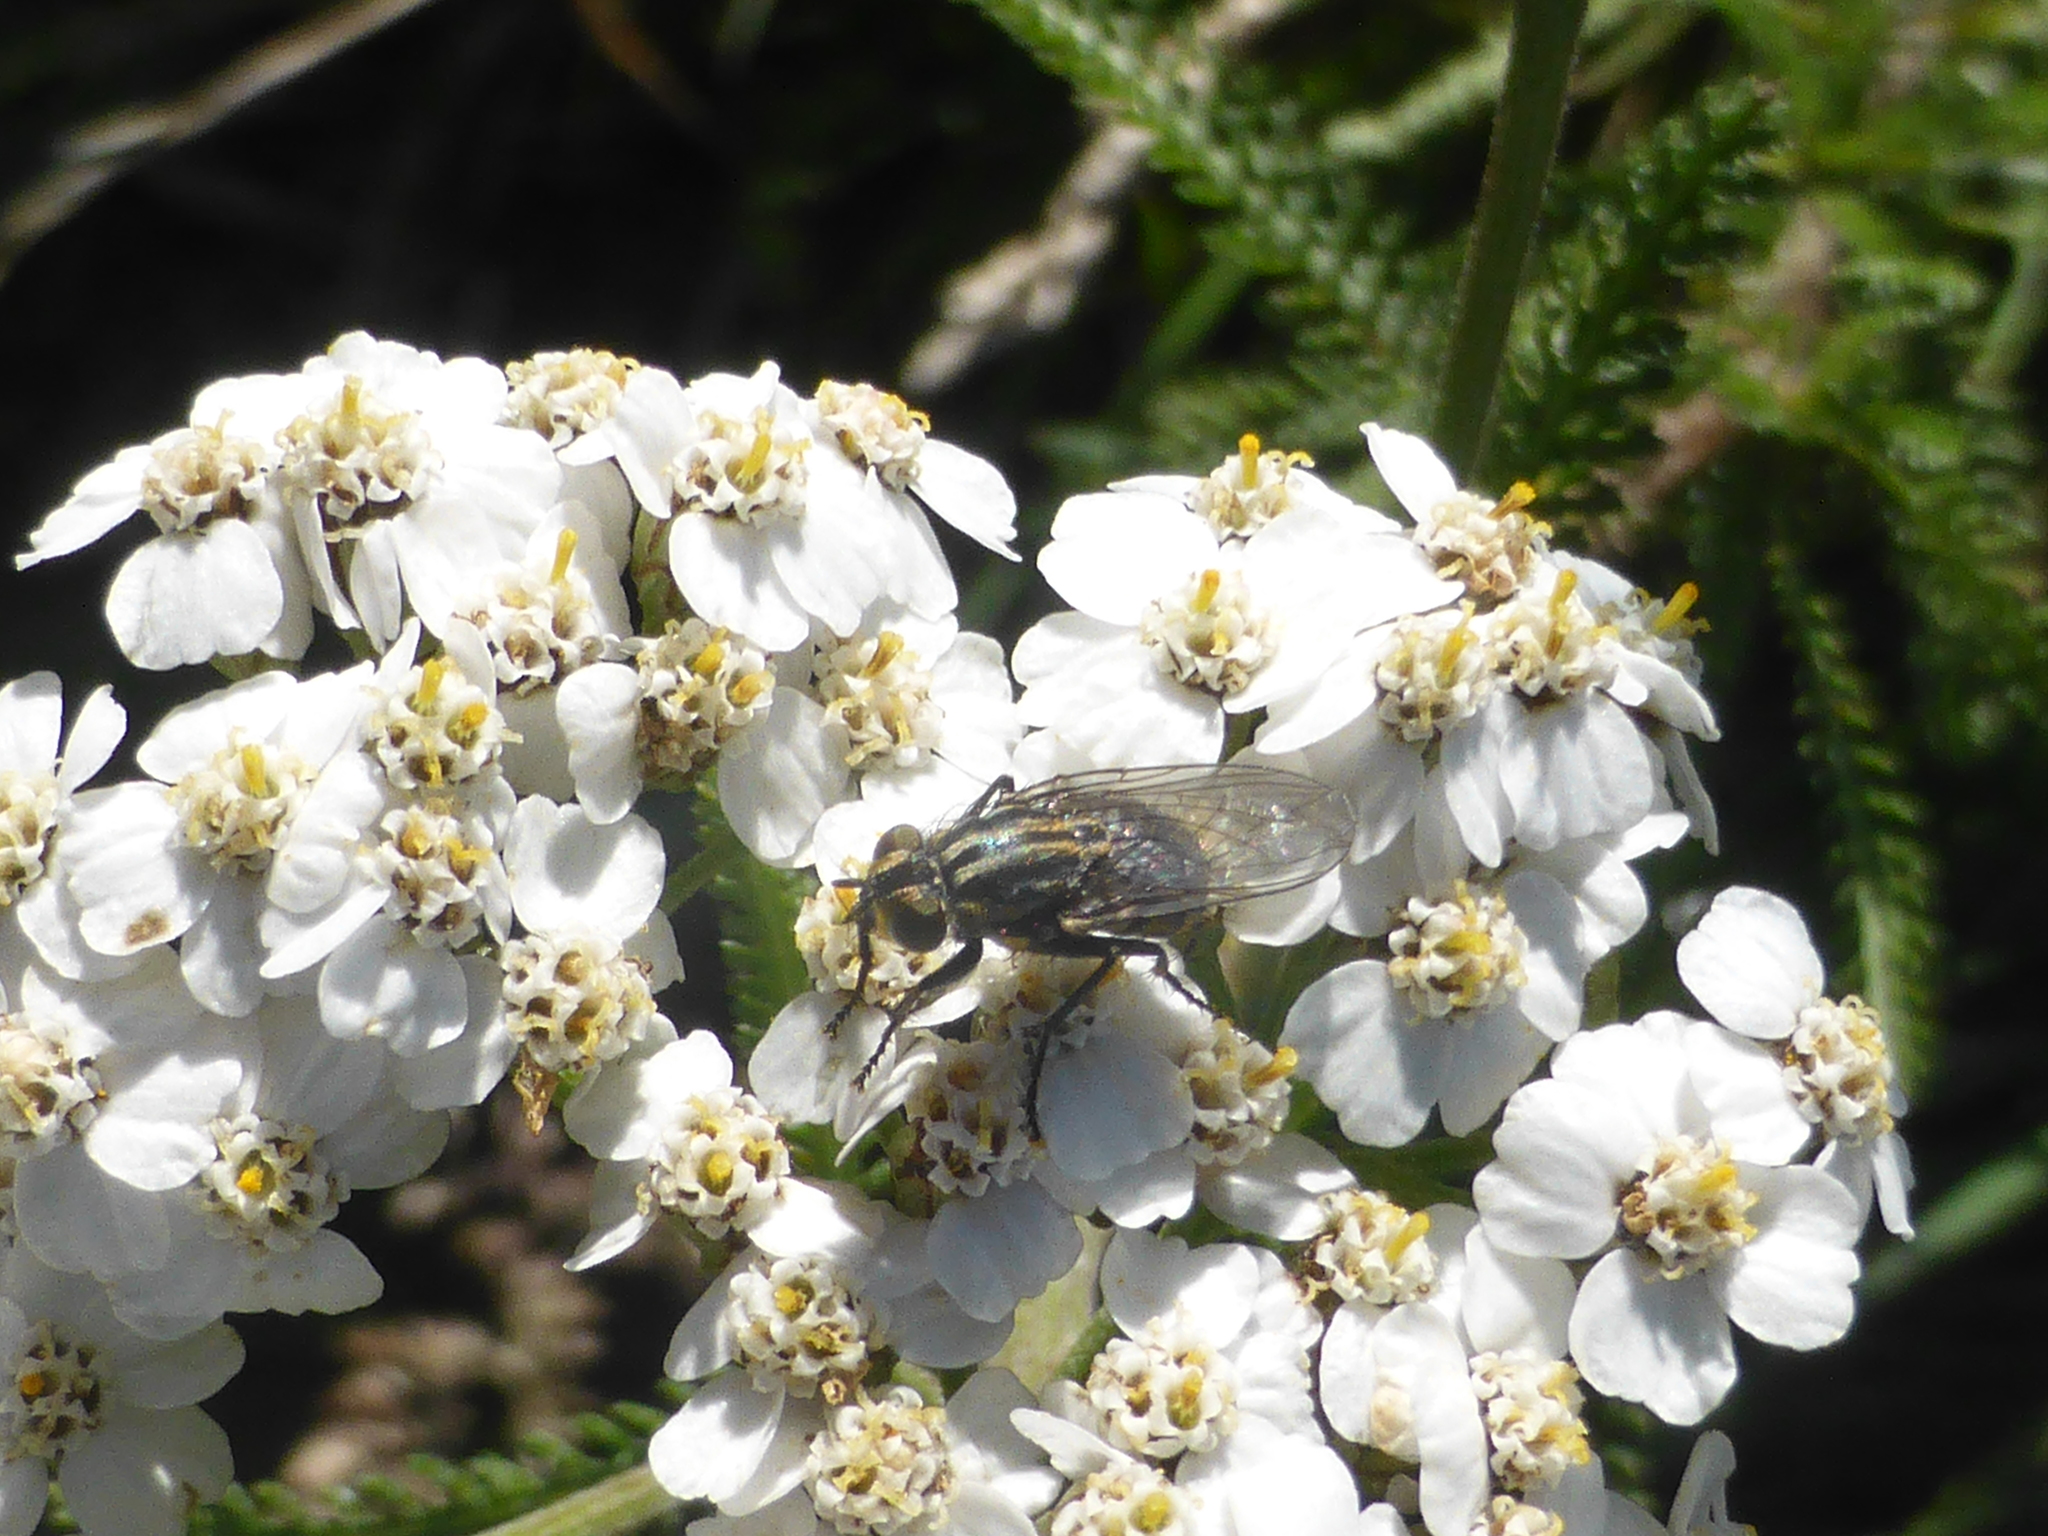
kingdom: Plantae
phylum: Tracheophyta
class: Magnoliopsida
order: Asterales
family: Asteraceae
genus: Achillea
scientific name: Achillea millefolium
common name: Yarrow
